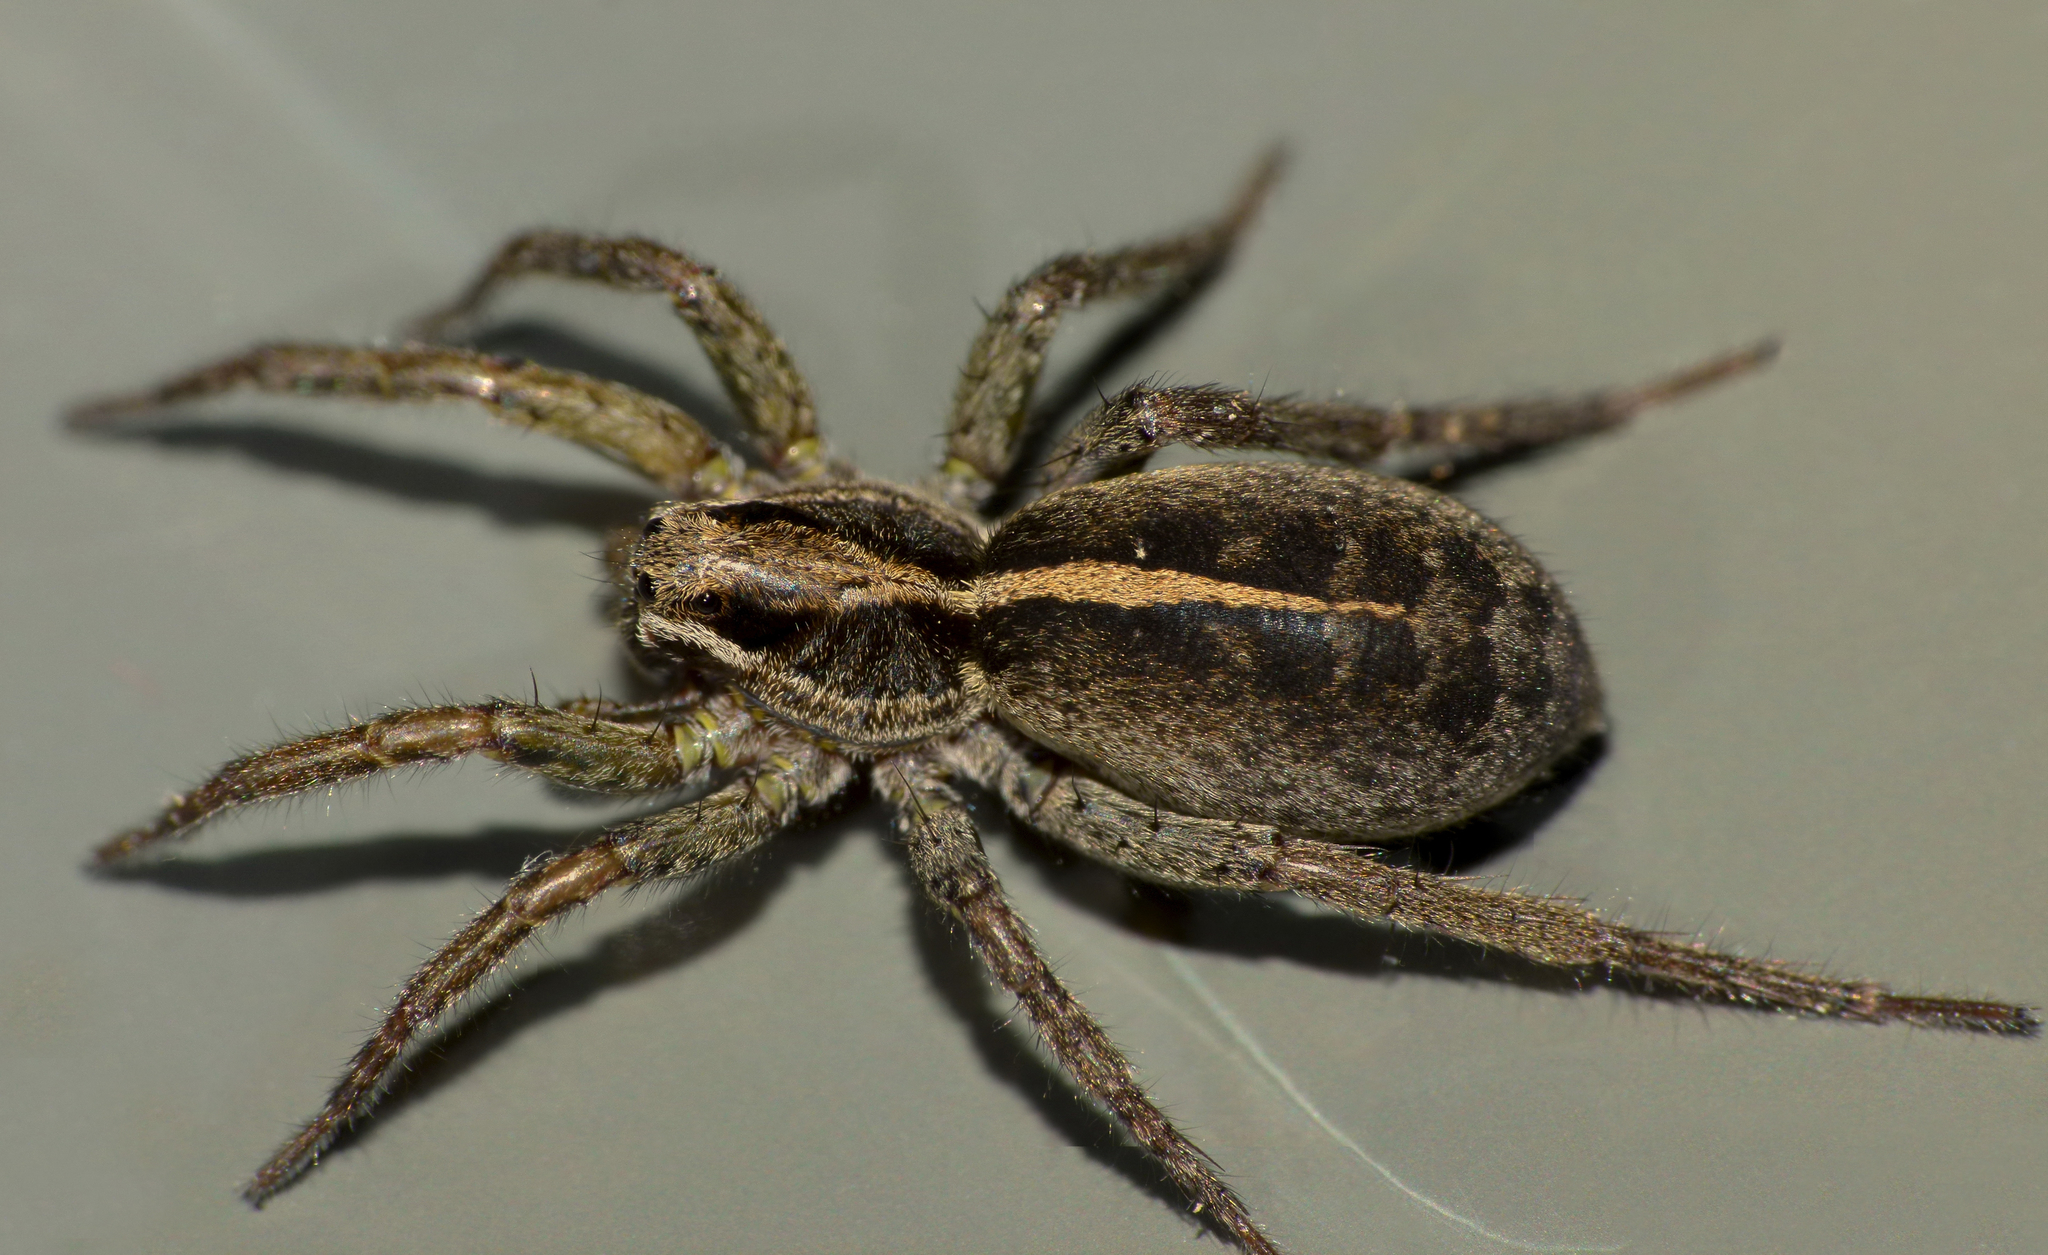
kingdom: Animalia
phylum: Arthropoda
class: Arachnida
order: Araneae
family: Lycosidae
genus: Anoteropsis
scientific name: Anoteropsis hilaris
